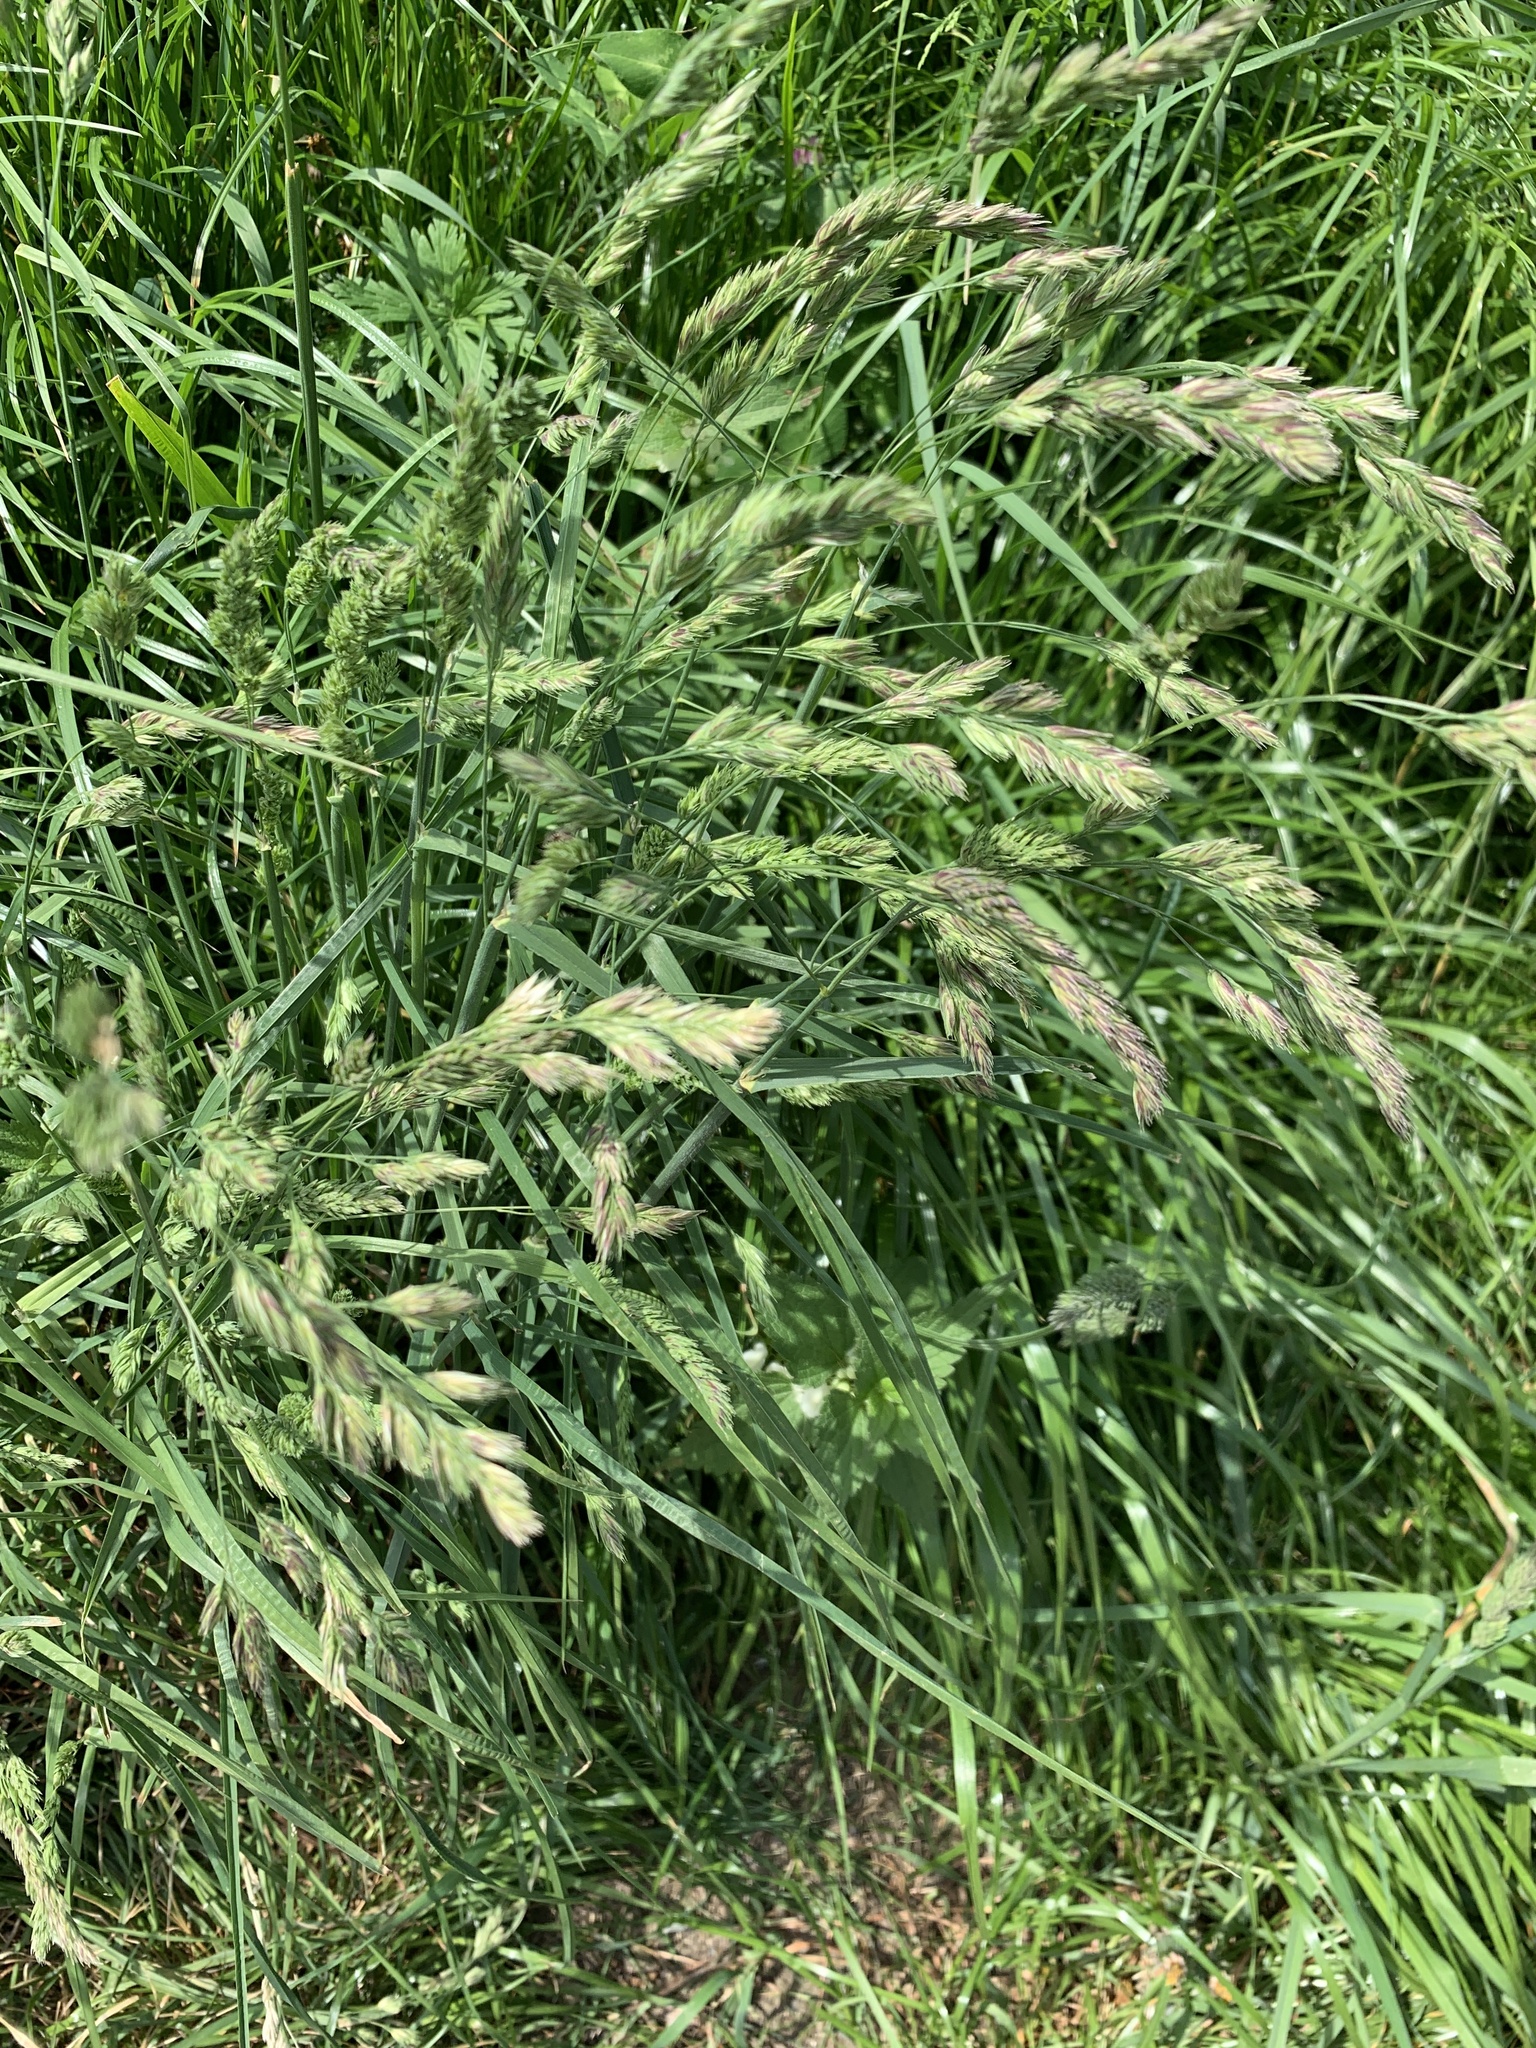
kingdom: Plantae
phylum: Tracheophyta
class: Liliopsida
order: Poales
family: Poaceae
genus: Dactylis
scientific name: Dactylis glomerata
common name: Orchardgrass
